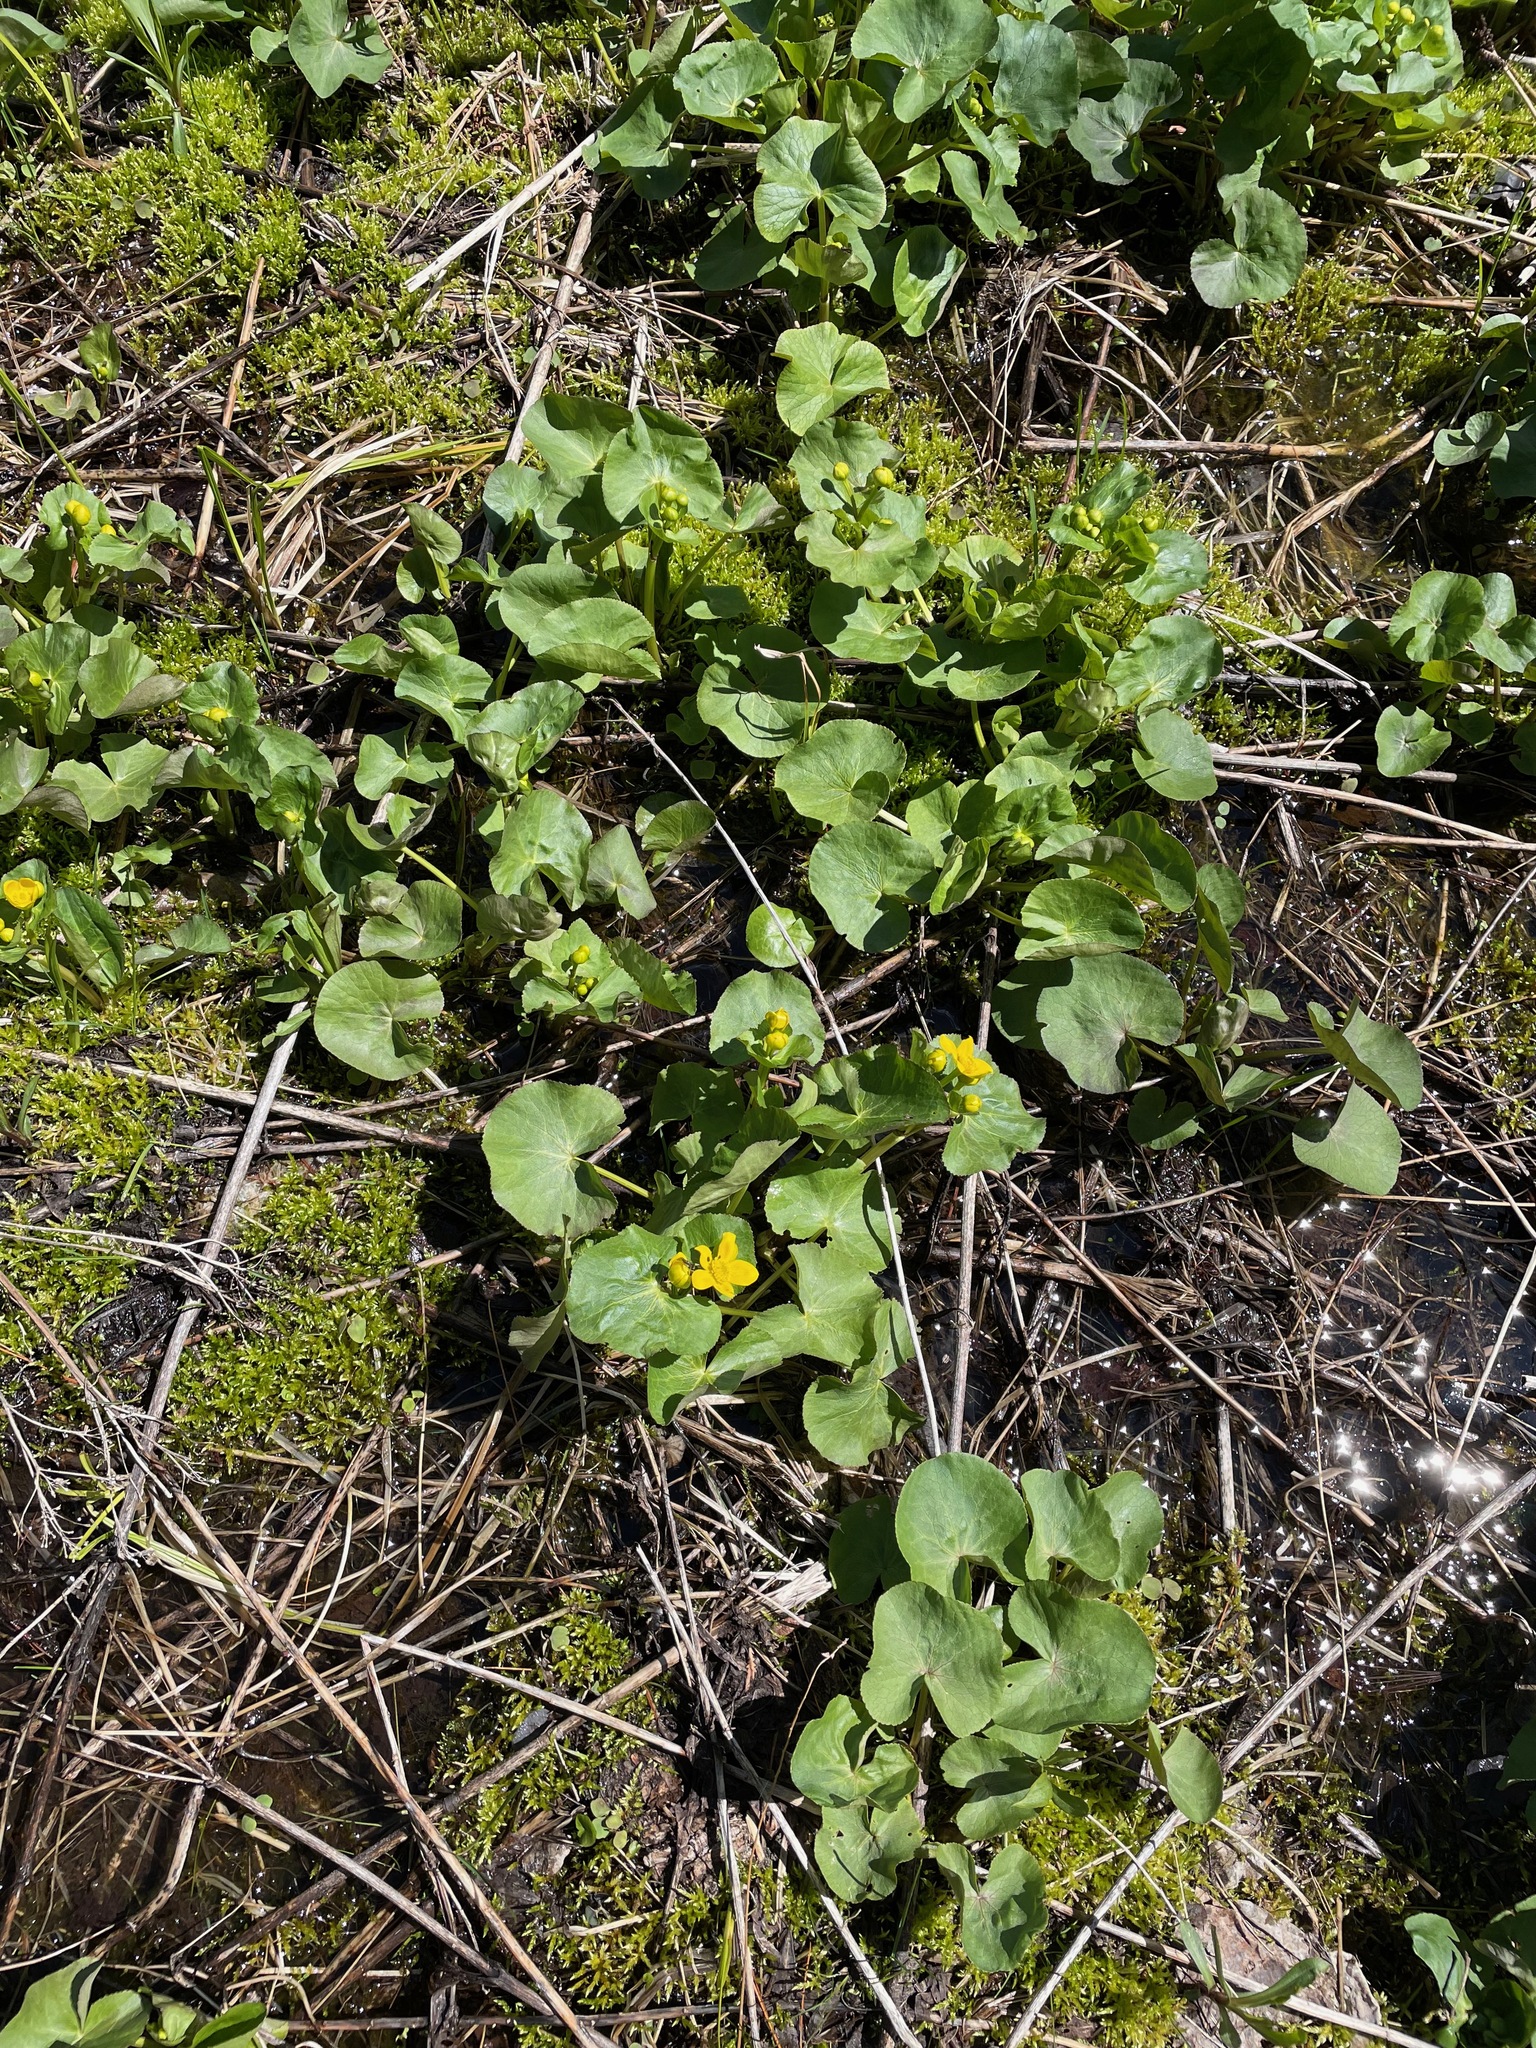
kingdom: Plantae
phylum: Tracheophyta
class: Magnoliopsida
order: Ranunculales
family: Ranunculaceae
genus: Caltha
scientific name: Caltha palustris
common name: Marsh marigold
